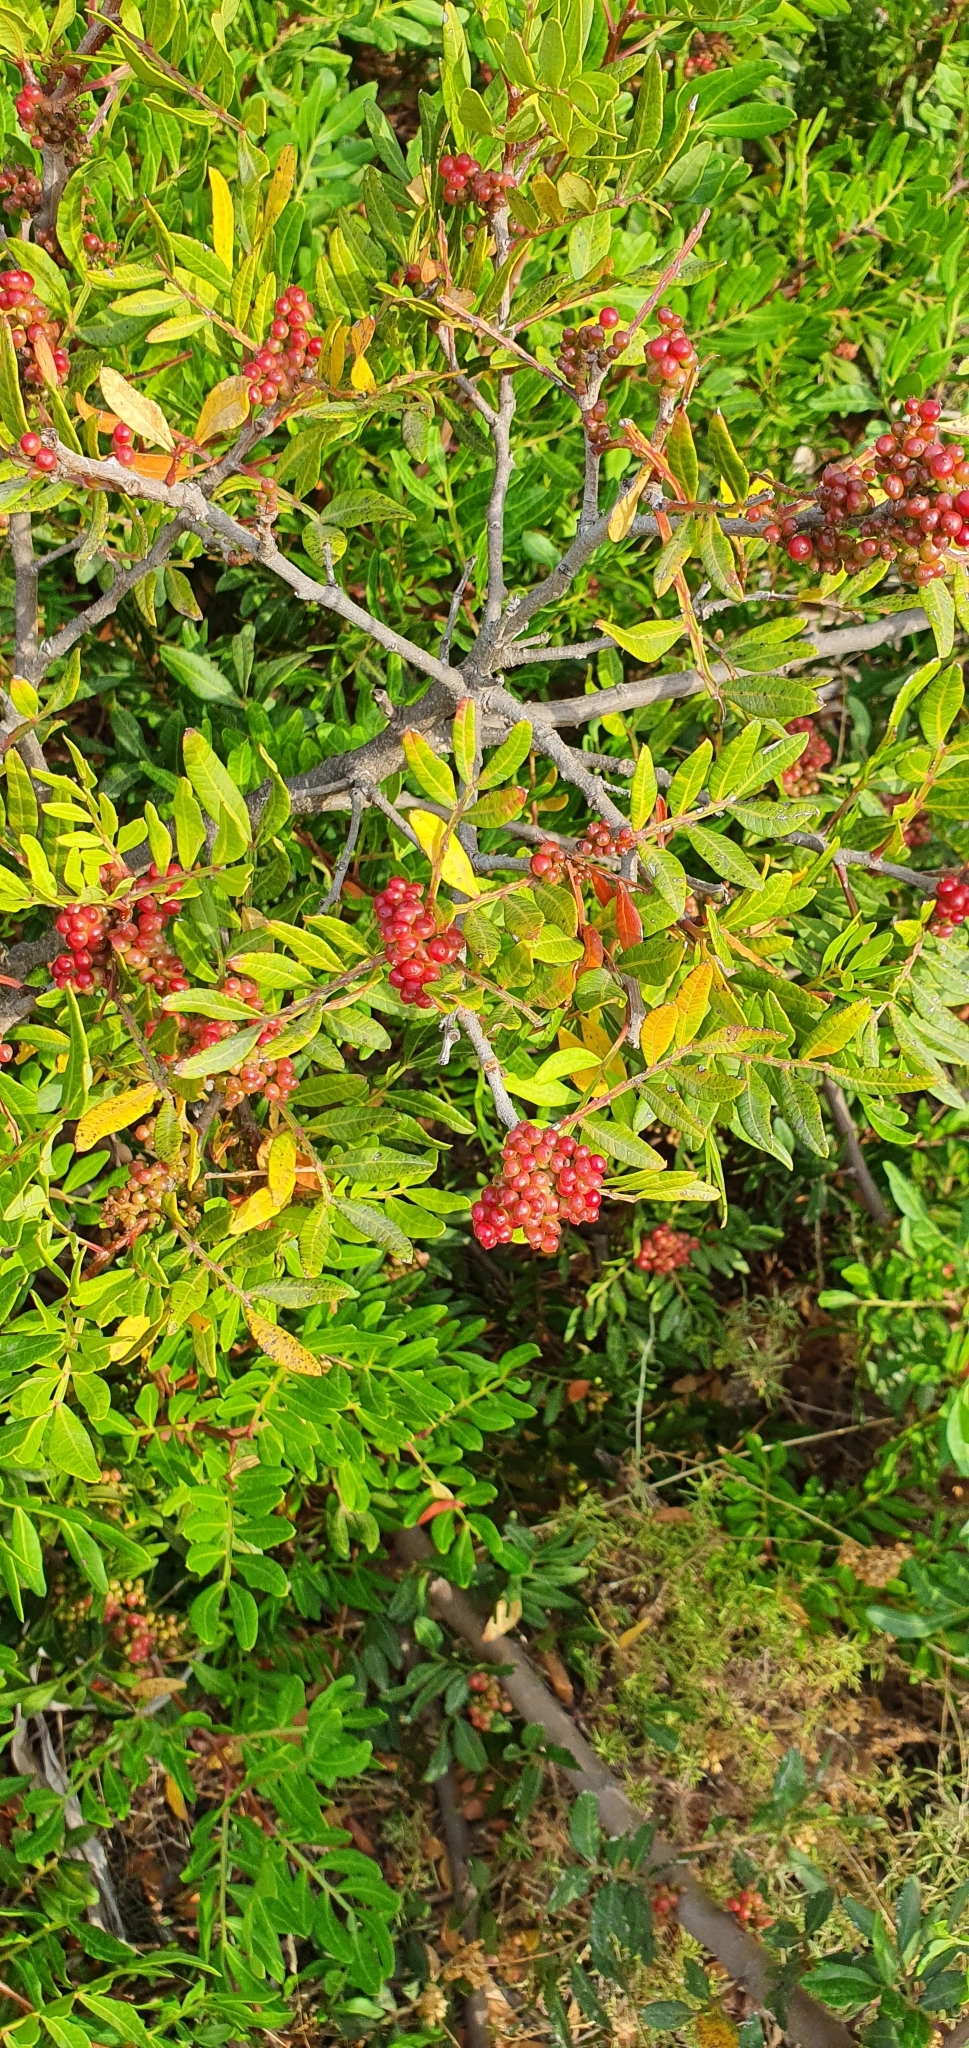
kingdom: Plantae
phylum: Tracheophyta
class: Magnoliopsida
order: Sapindales
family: Anacardiaceae
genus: Pistacia
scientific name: Pistacia lentiscus
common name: Lentisk
